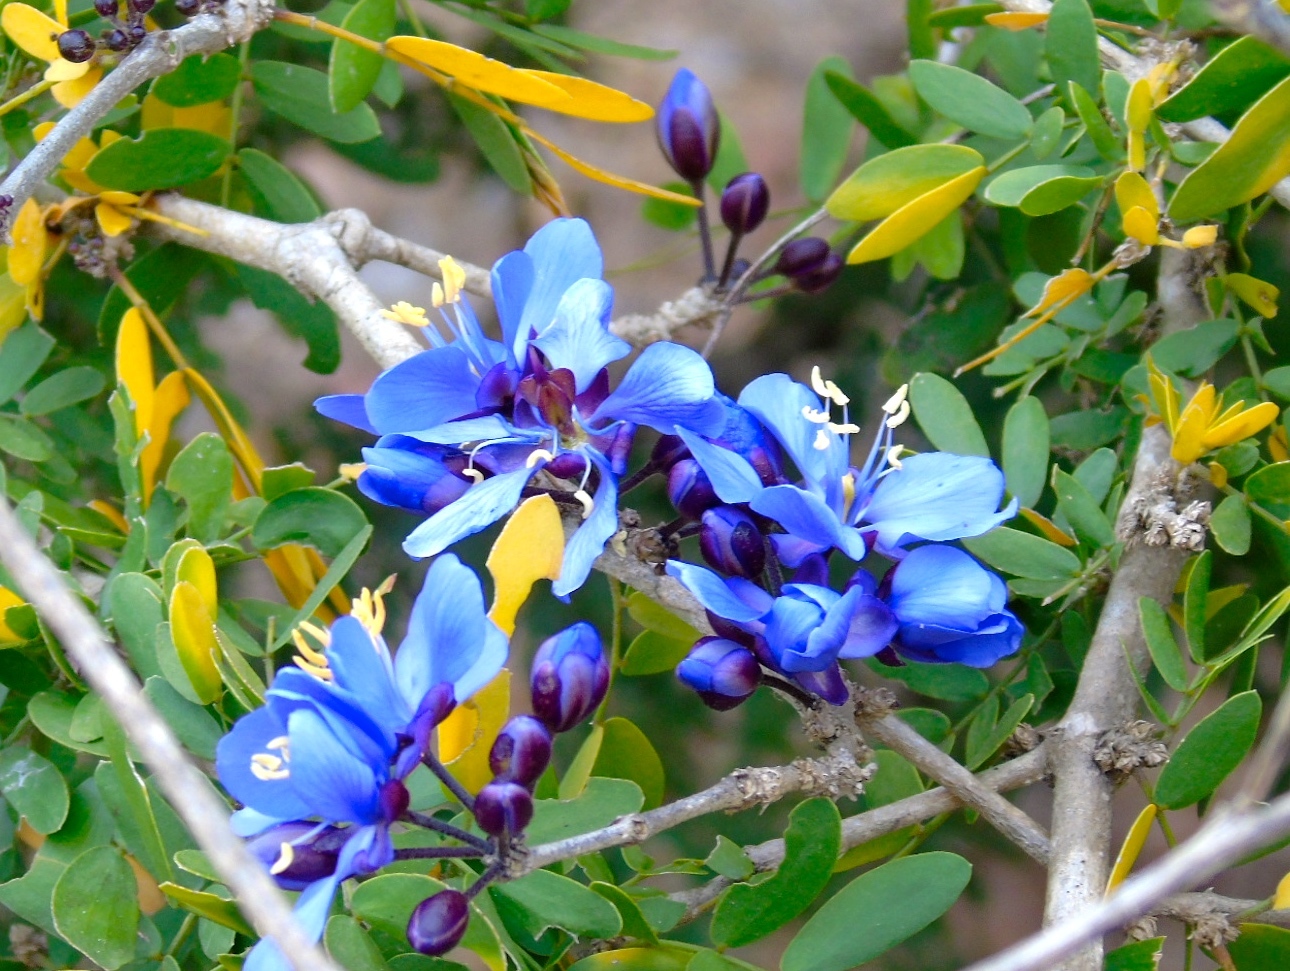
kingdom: Plantae
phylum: Tracheophyta
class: Magnoliopsida
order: Zygophyllales
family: Zygophyllaceae
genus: Guaiacum
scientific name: Guaiacum coulteri
